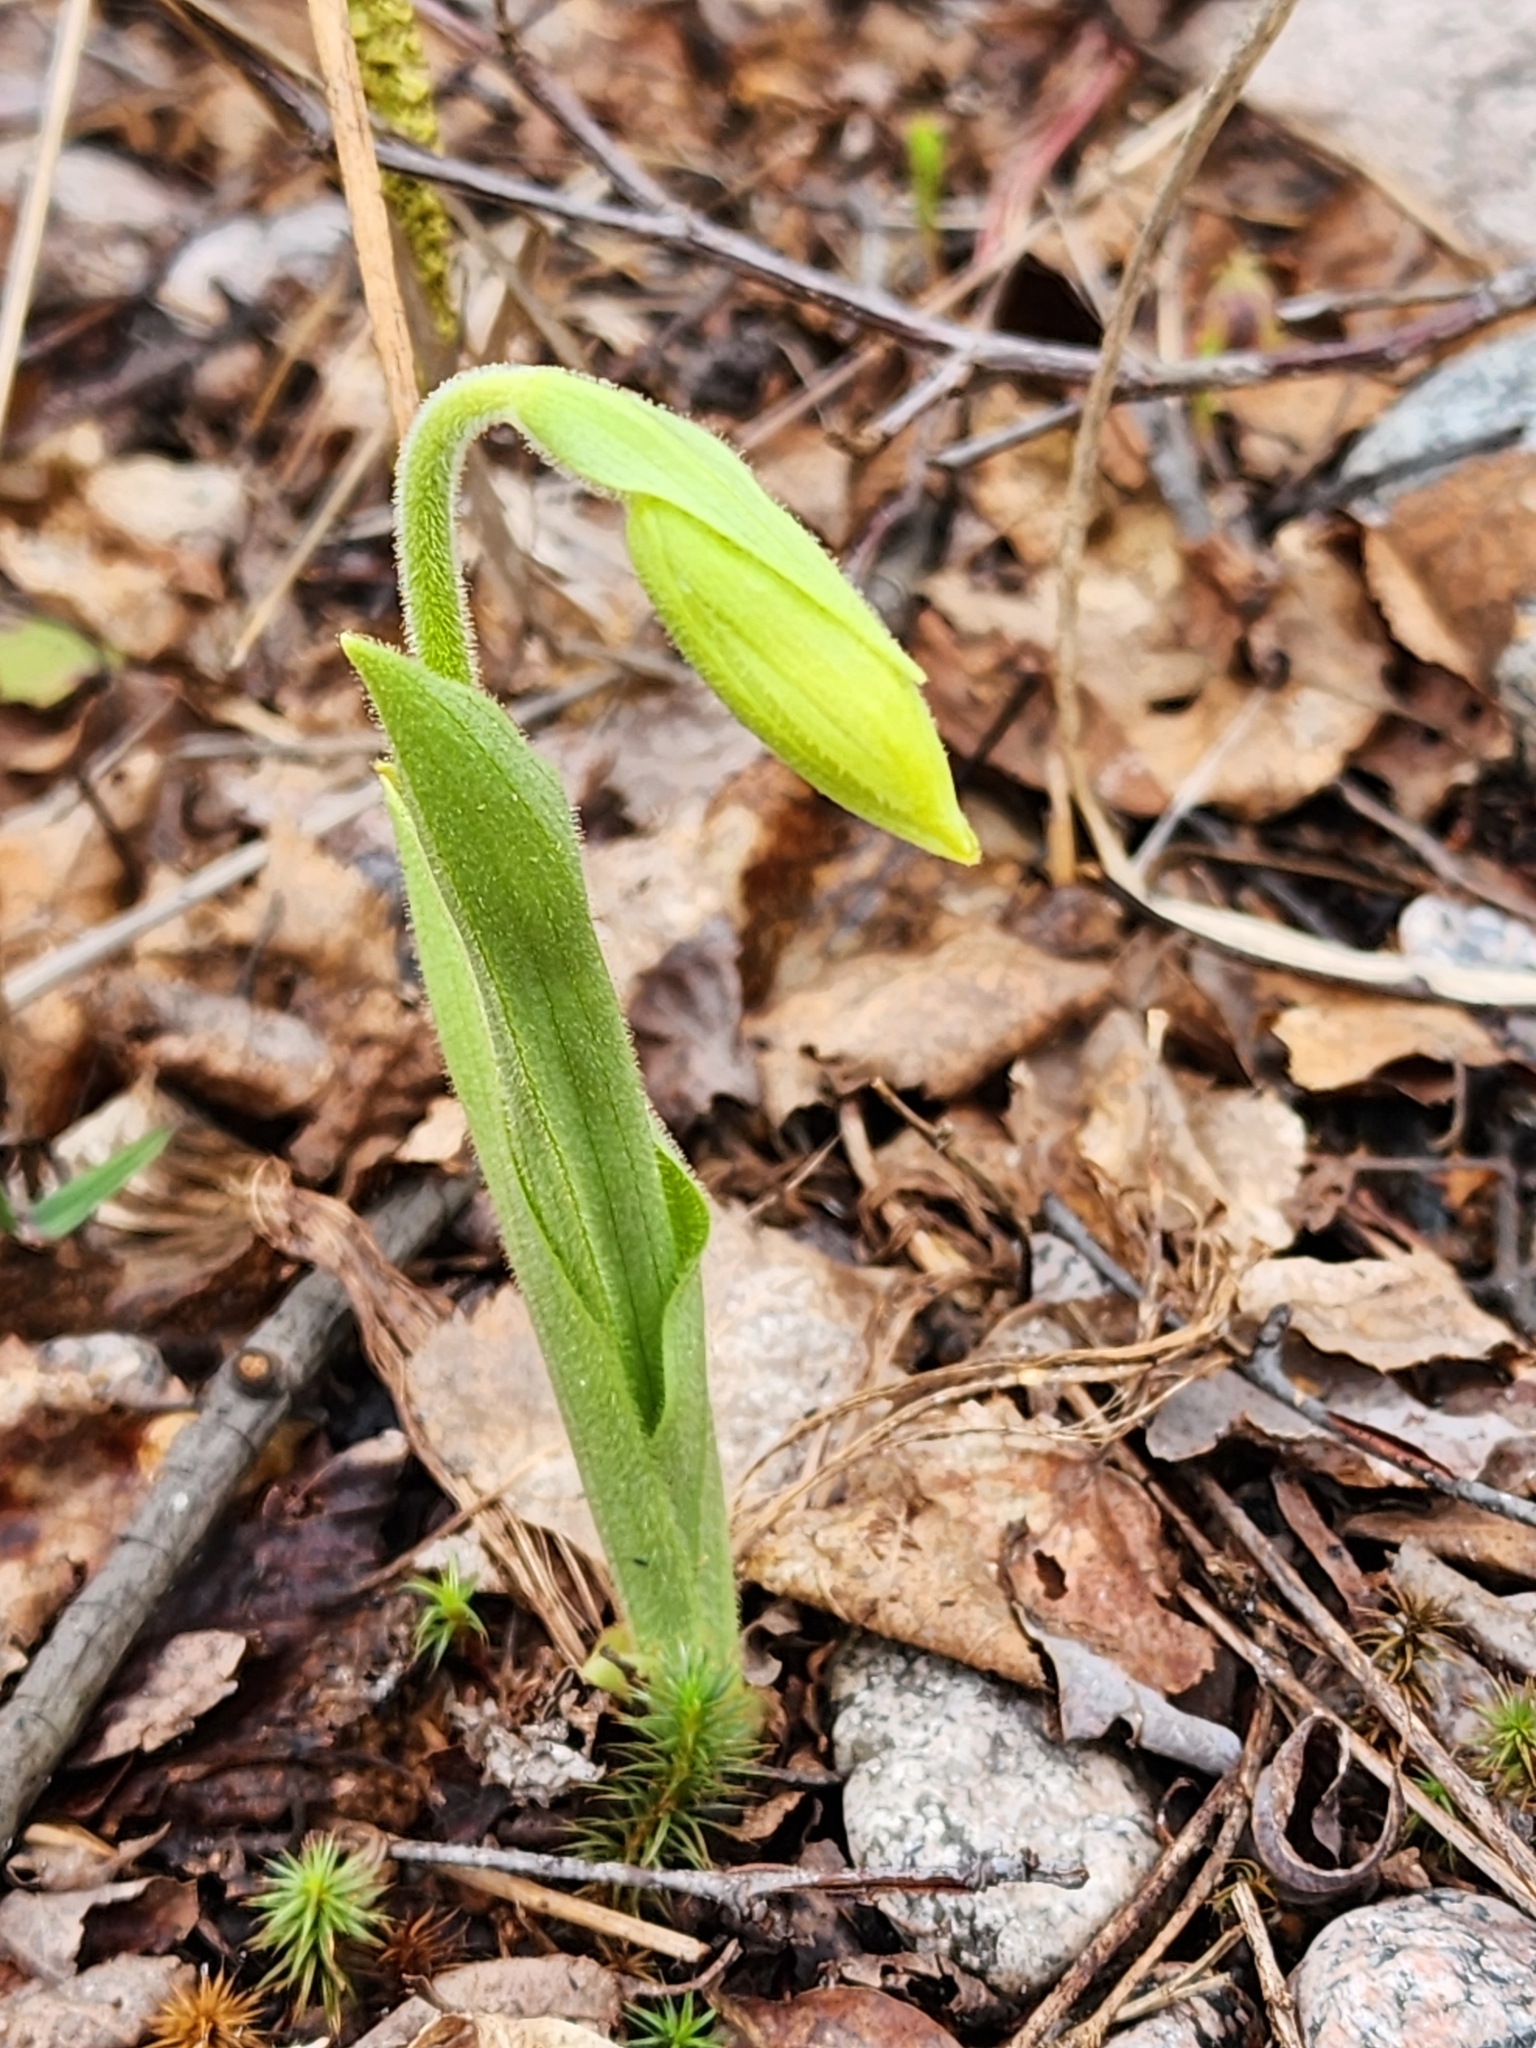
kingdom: Plantae
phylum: Tracheophyta
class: Liliopsida
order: Asparagales
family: Orchidaceae
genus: Cypripedium
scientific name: Cypripedium acaule
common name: Pink lady's-slipper
